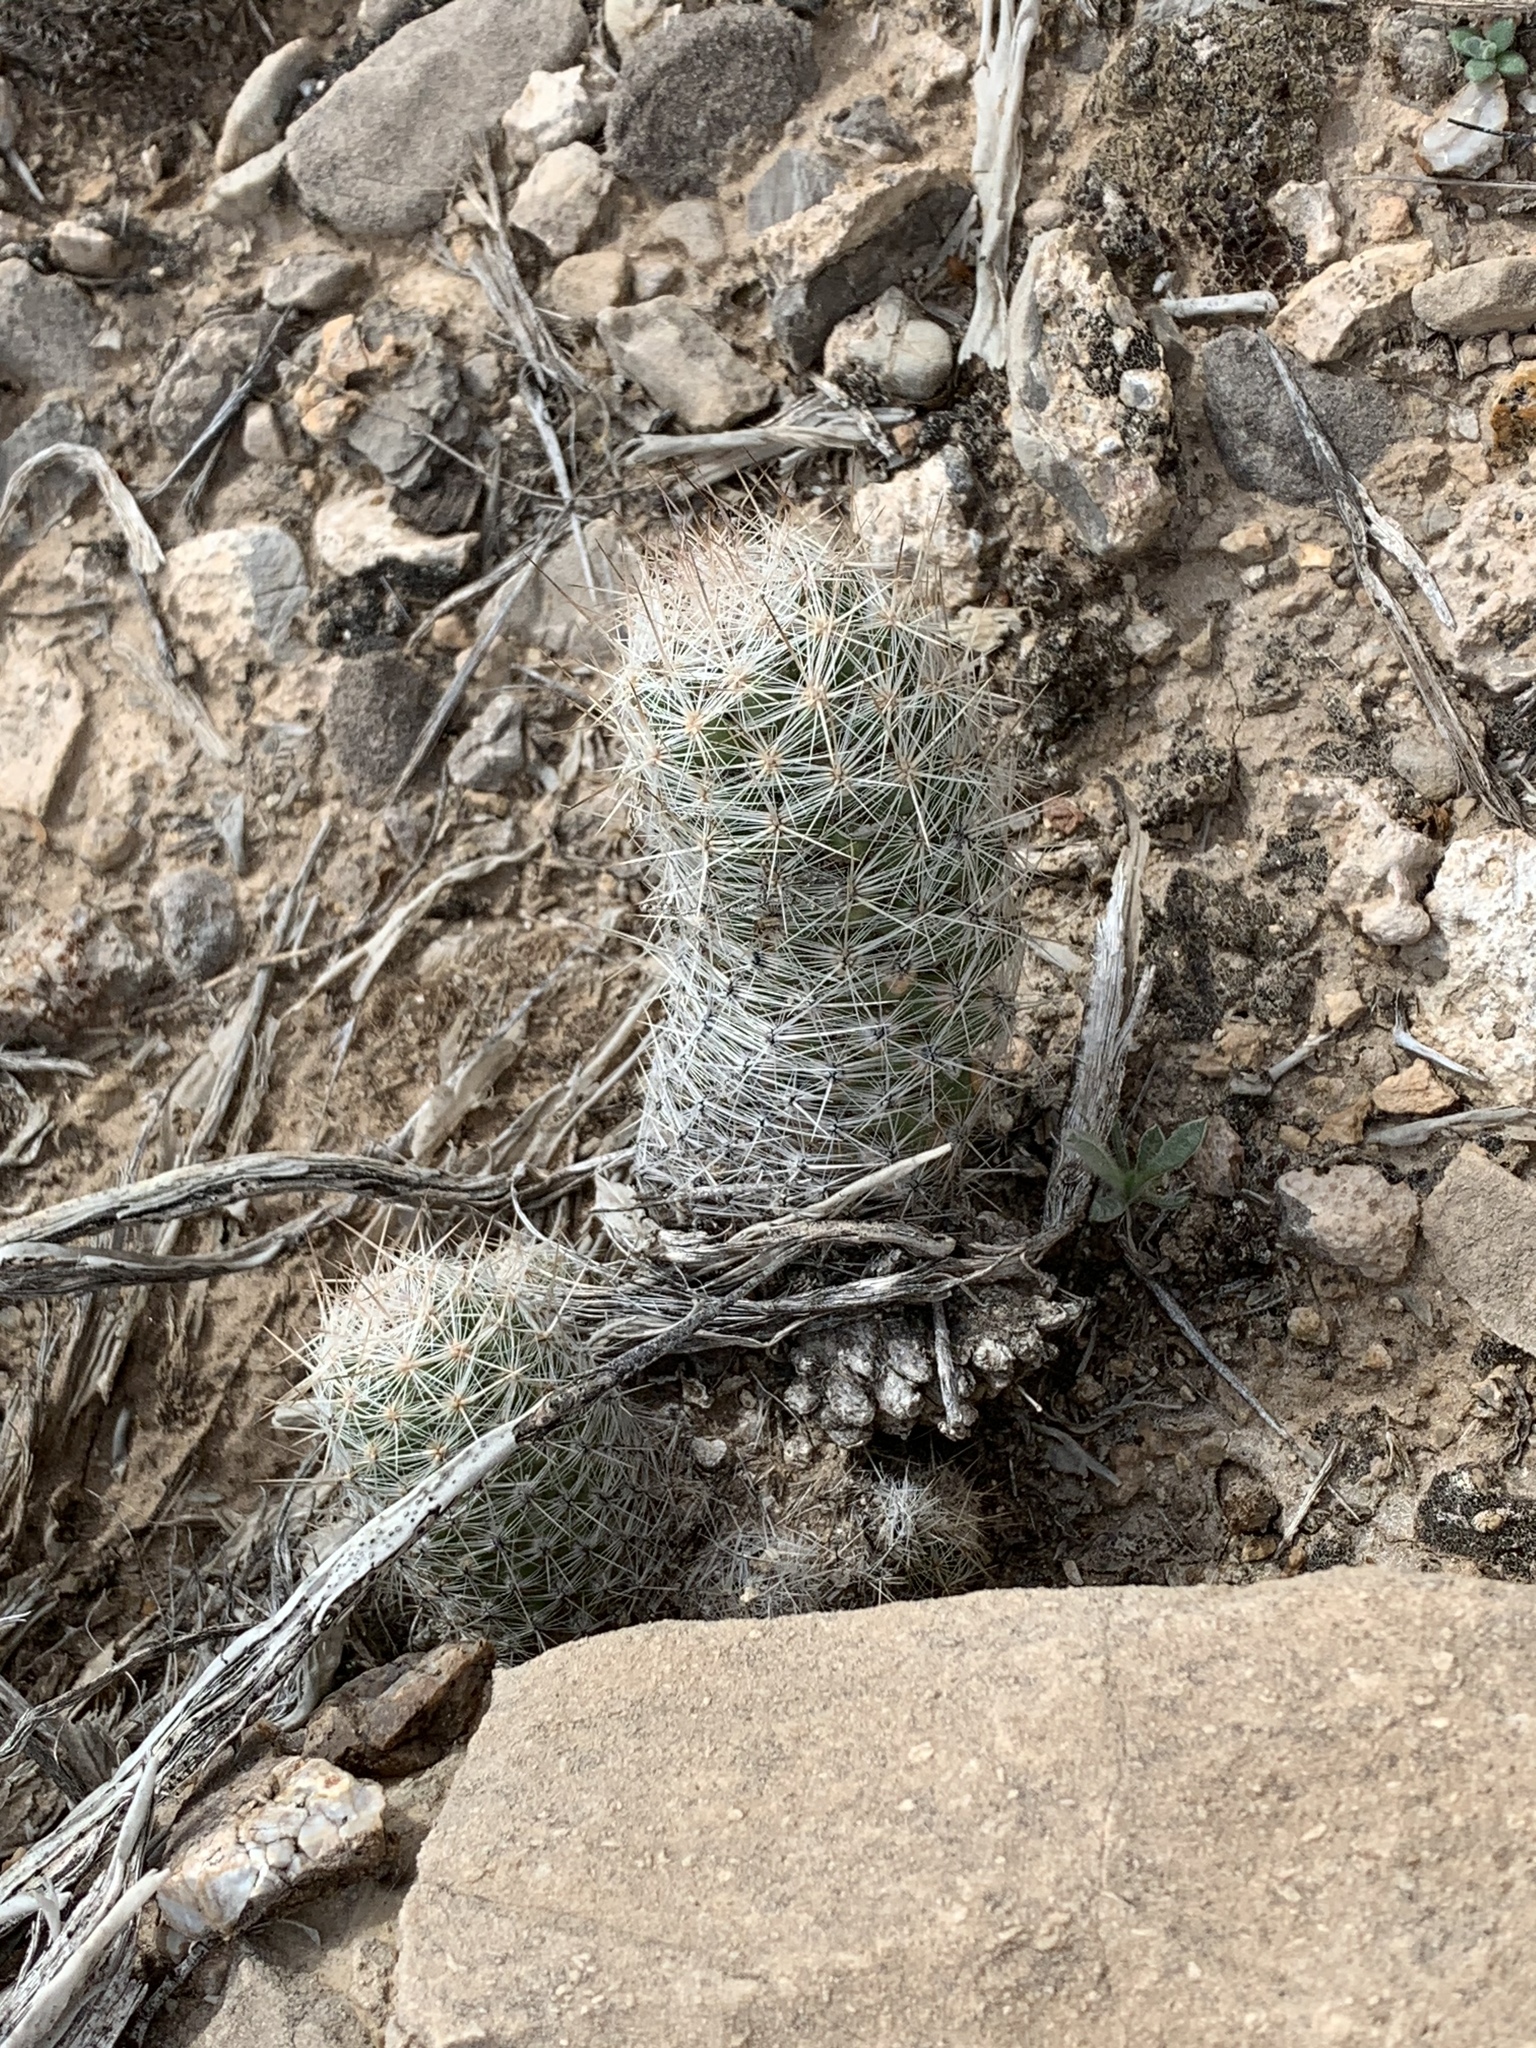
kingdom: Plantae
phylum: Tracheophyta
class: Magnoliopsida
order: Caryophyllales
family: Cactaceae
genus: Pelecyphora
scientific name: Pelecyphora tuberculosa
